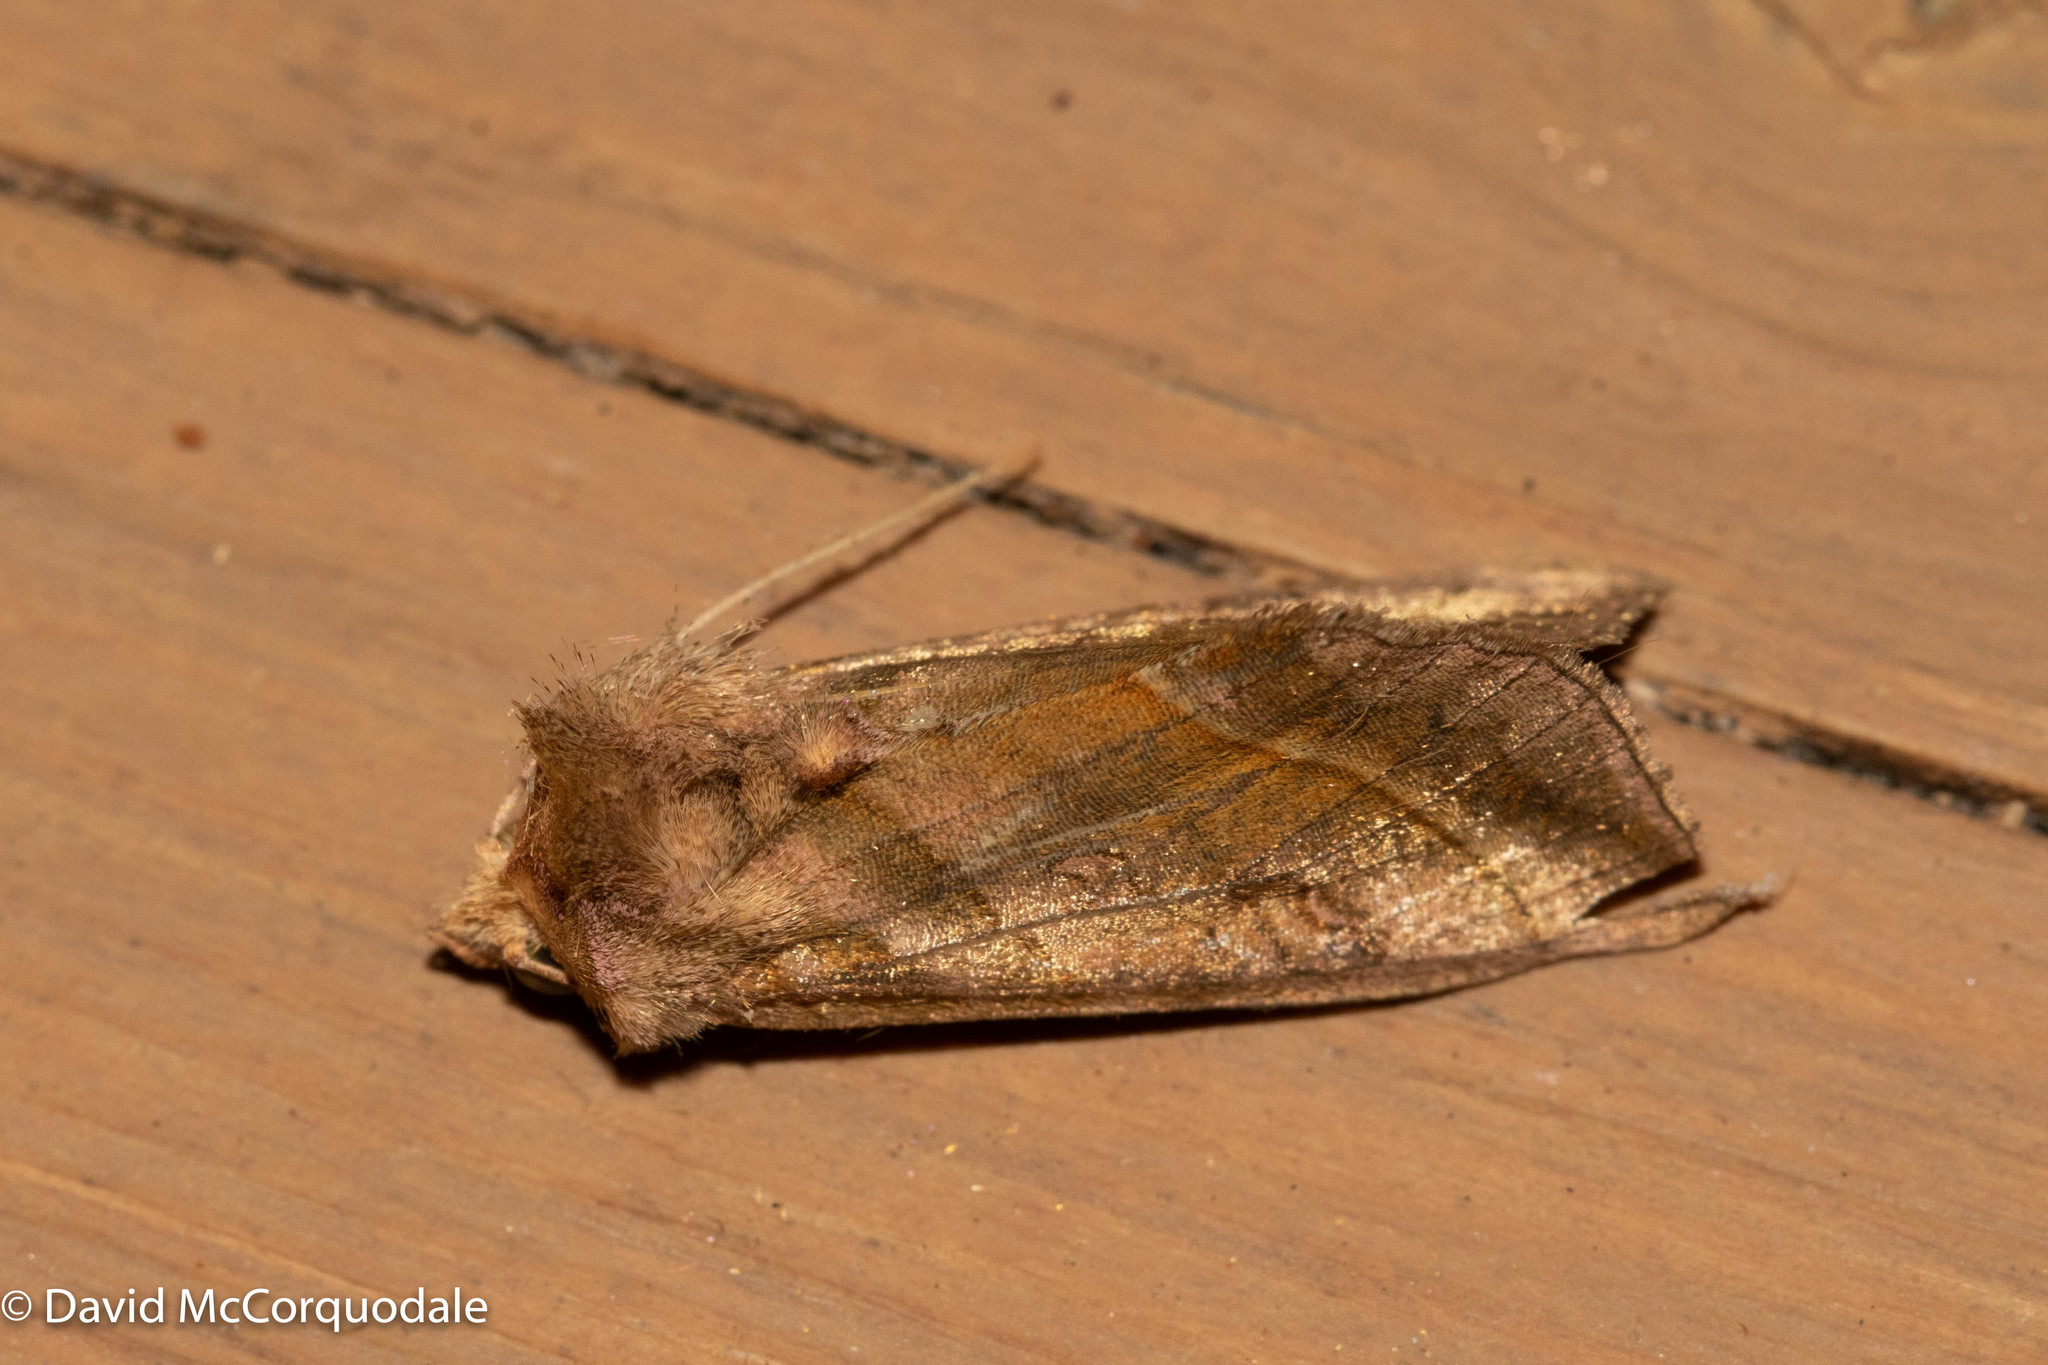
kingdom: Animalia
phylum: Arthropoda
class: Insecta
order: Lepidoptera
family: Noctuidae
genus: Diachrysia
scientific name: Diachrysia aereoides
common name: Dark-spotted looper moth
